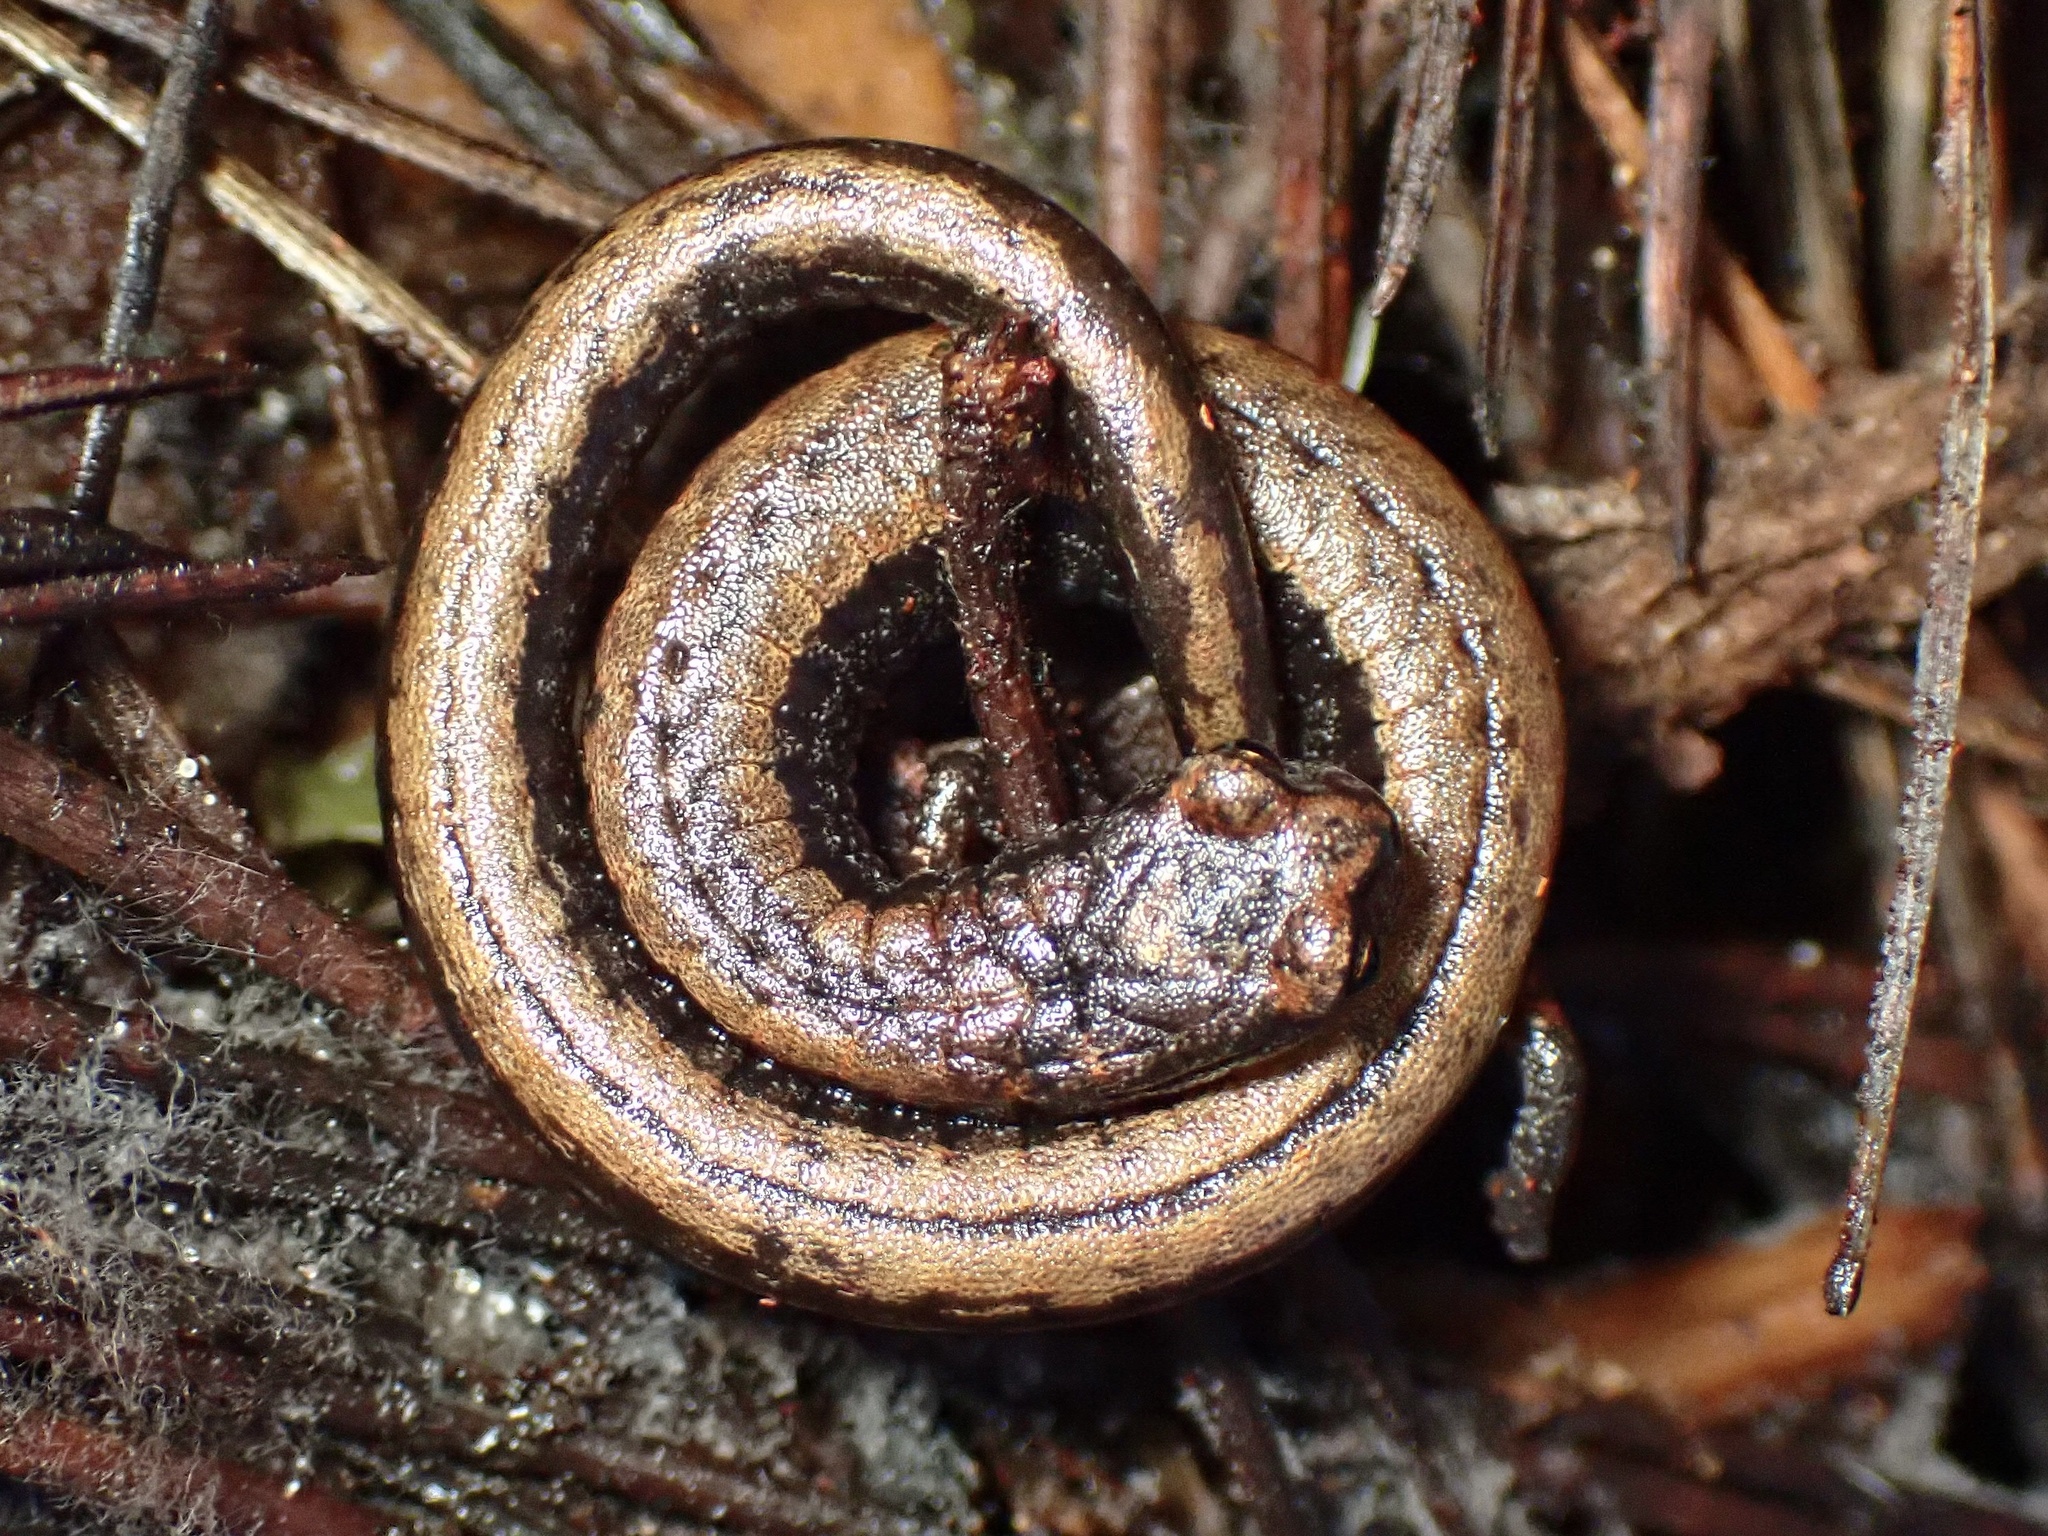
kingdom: Animalia
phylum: Chordata
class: Amphibia
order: Caudata
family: Plethodontidae
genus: Batrachoseps
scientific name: Batrachoseps attenuatus
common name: California slender salamander
